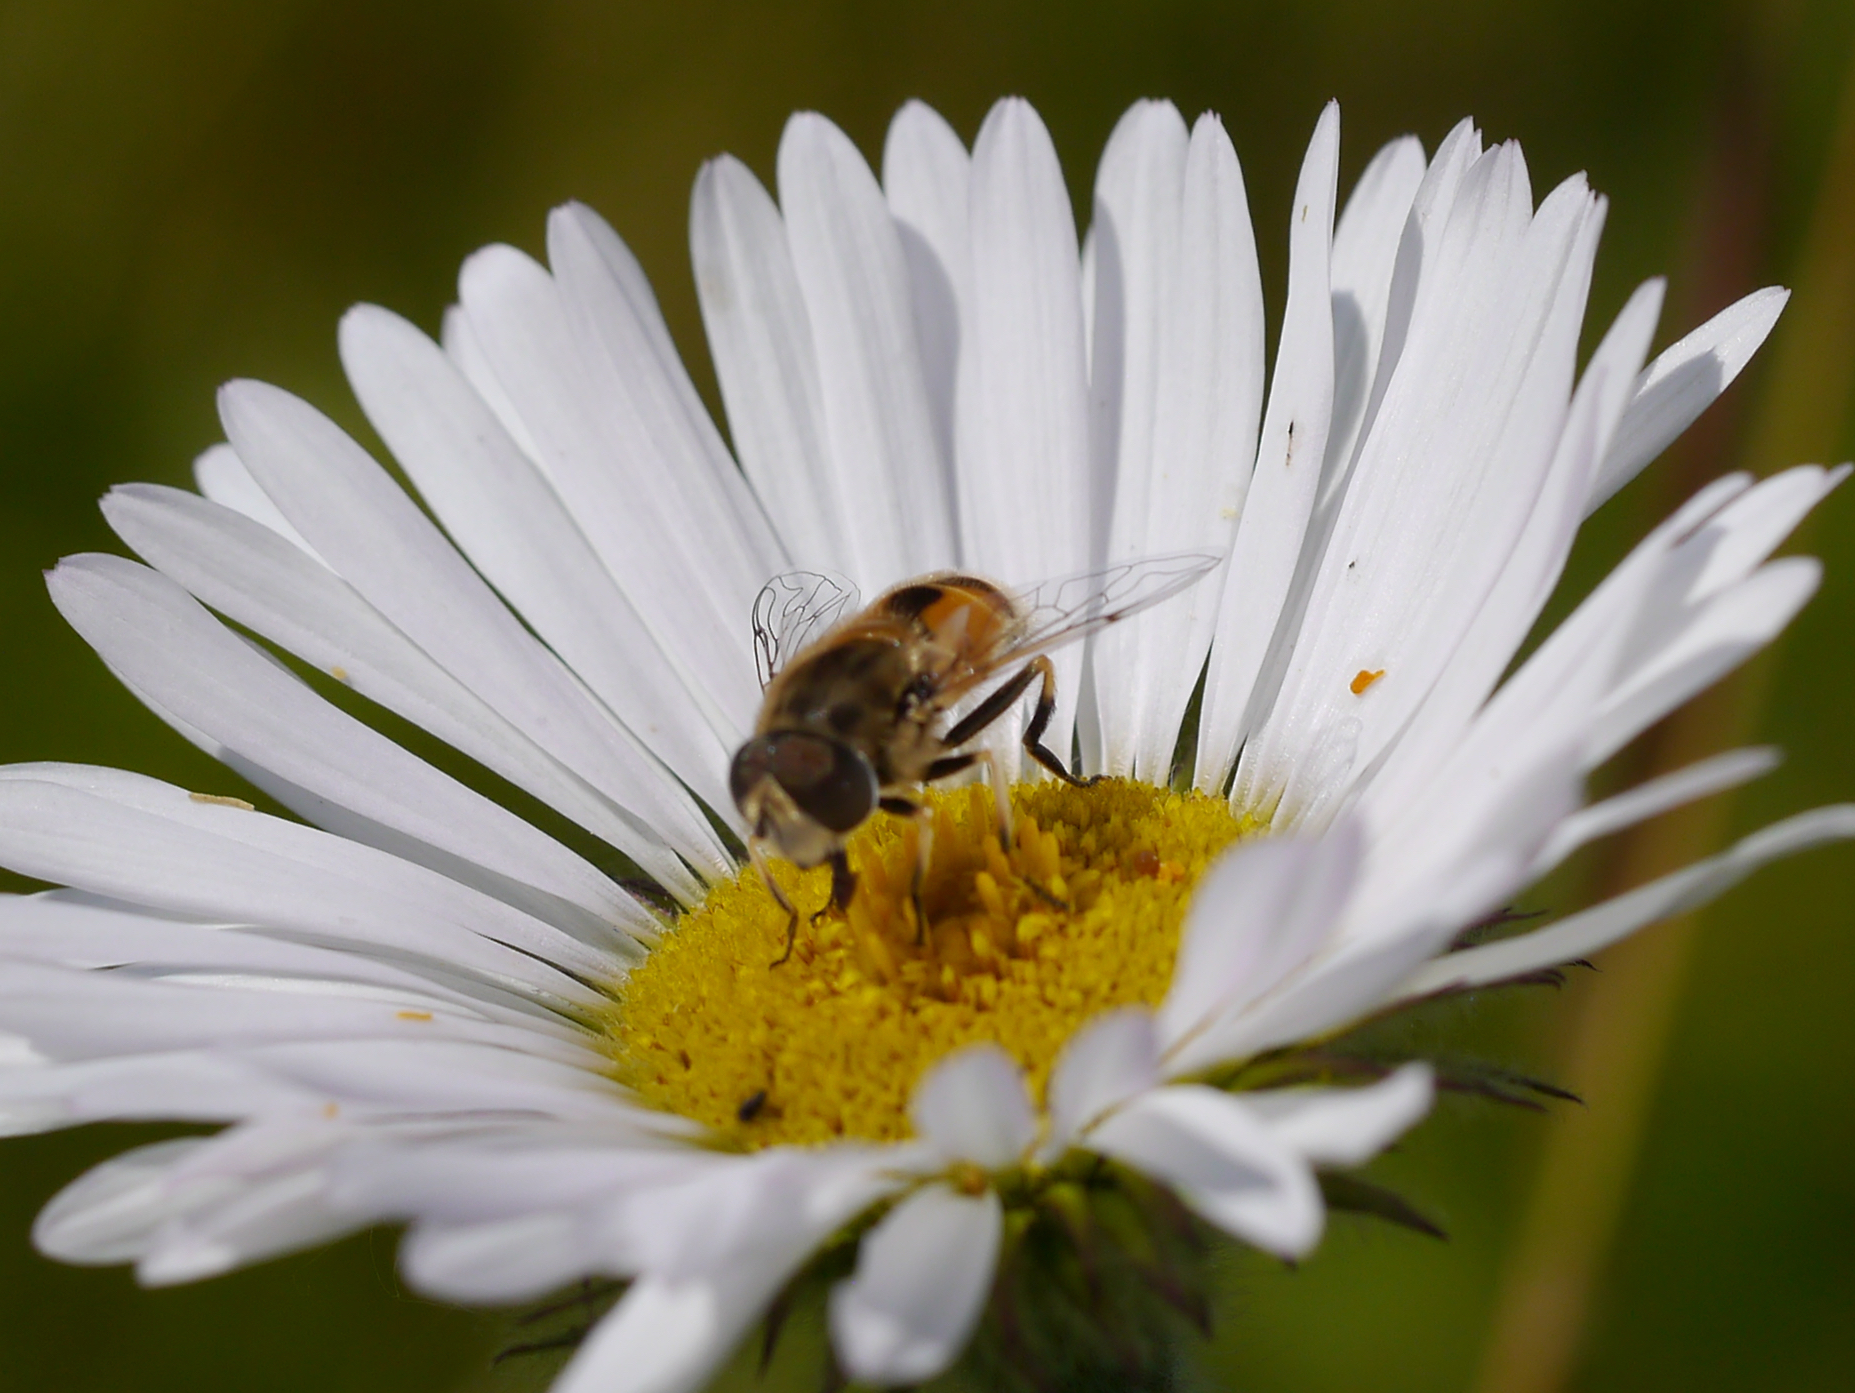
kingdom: Animalia
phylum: Arthropoda
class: Insecta
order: Diptera
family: Syrphidae
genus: Eristalis
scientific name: Eristalis arbustorum
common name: Hover fly
